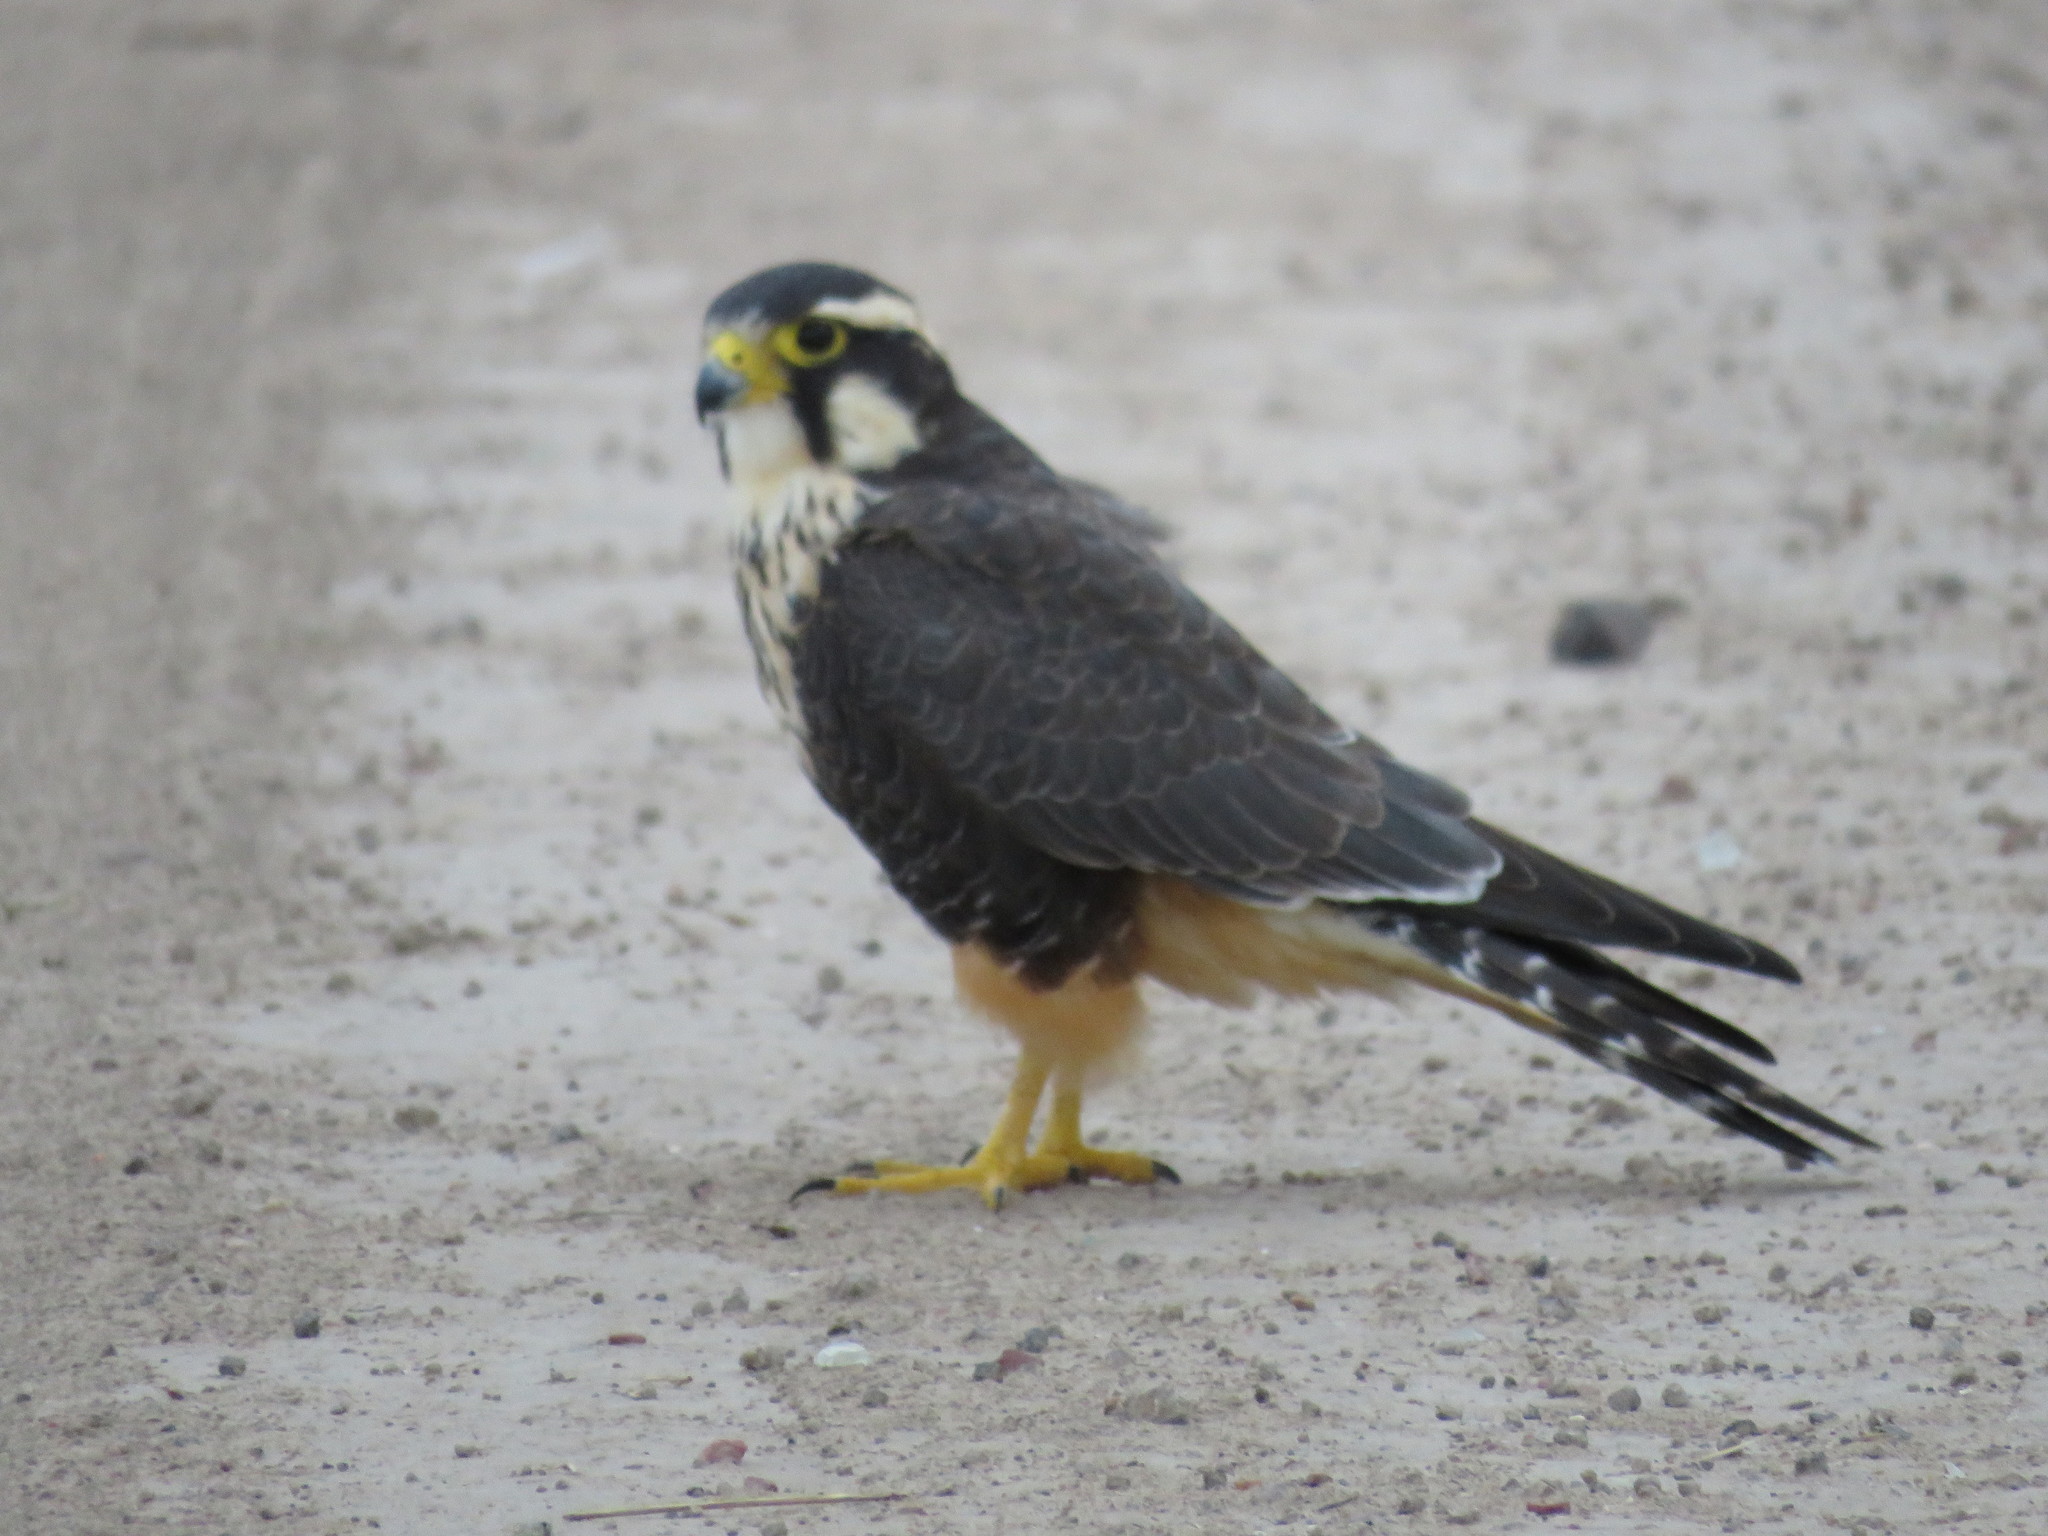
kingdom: Animalia
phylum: Chordata
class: Aves
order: Falconiformes
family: Falconidae
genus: Falco
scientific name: Falco femoralis
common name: Aplomado falcon
